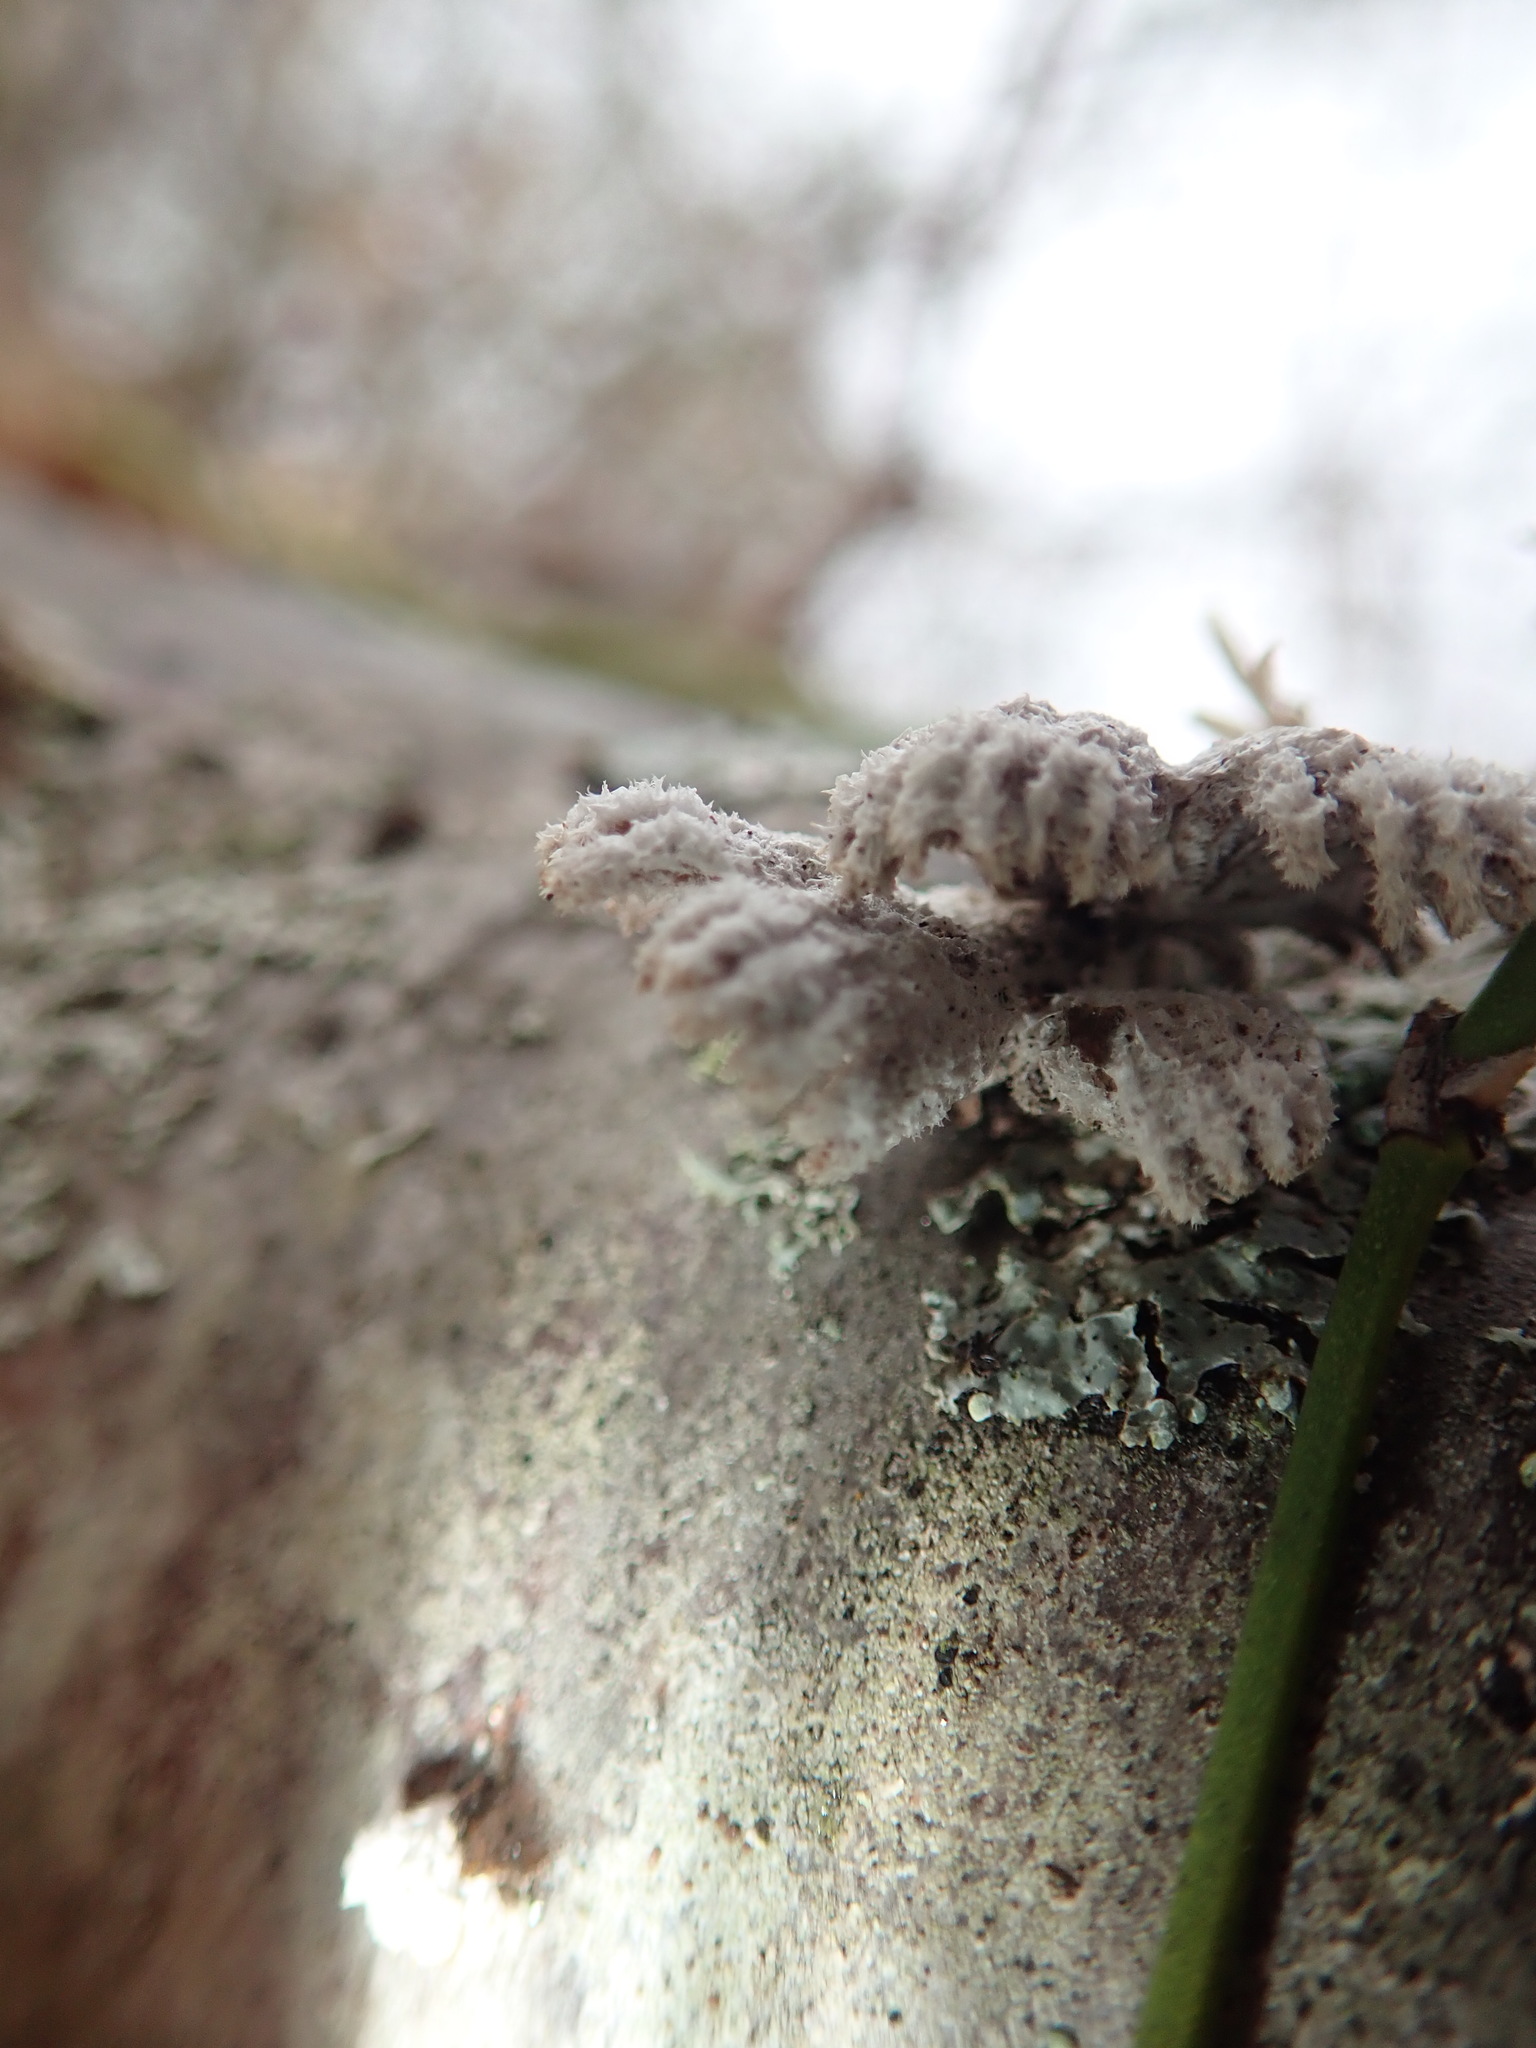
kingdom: Fungi
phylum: Basidiomycota
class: Agaricomycetes
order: Agaricales
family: Schizophyllaceae
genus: Schizophyllum
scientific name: Schizophyllum commune
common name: Common porecrust
